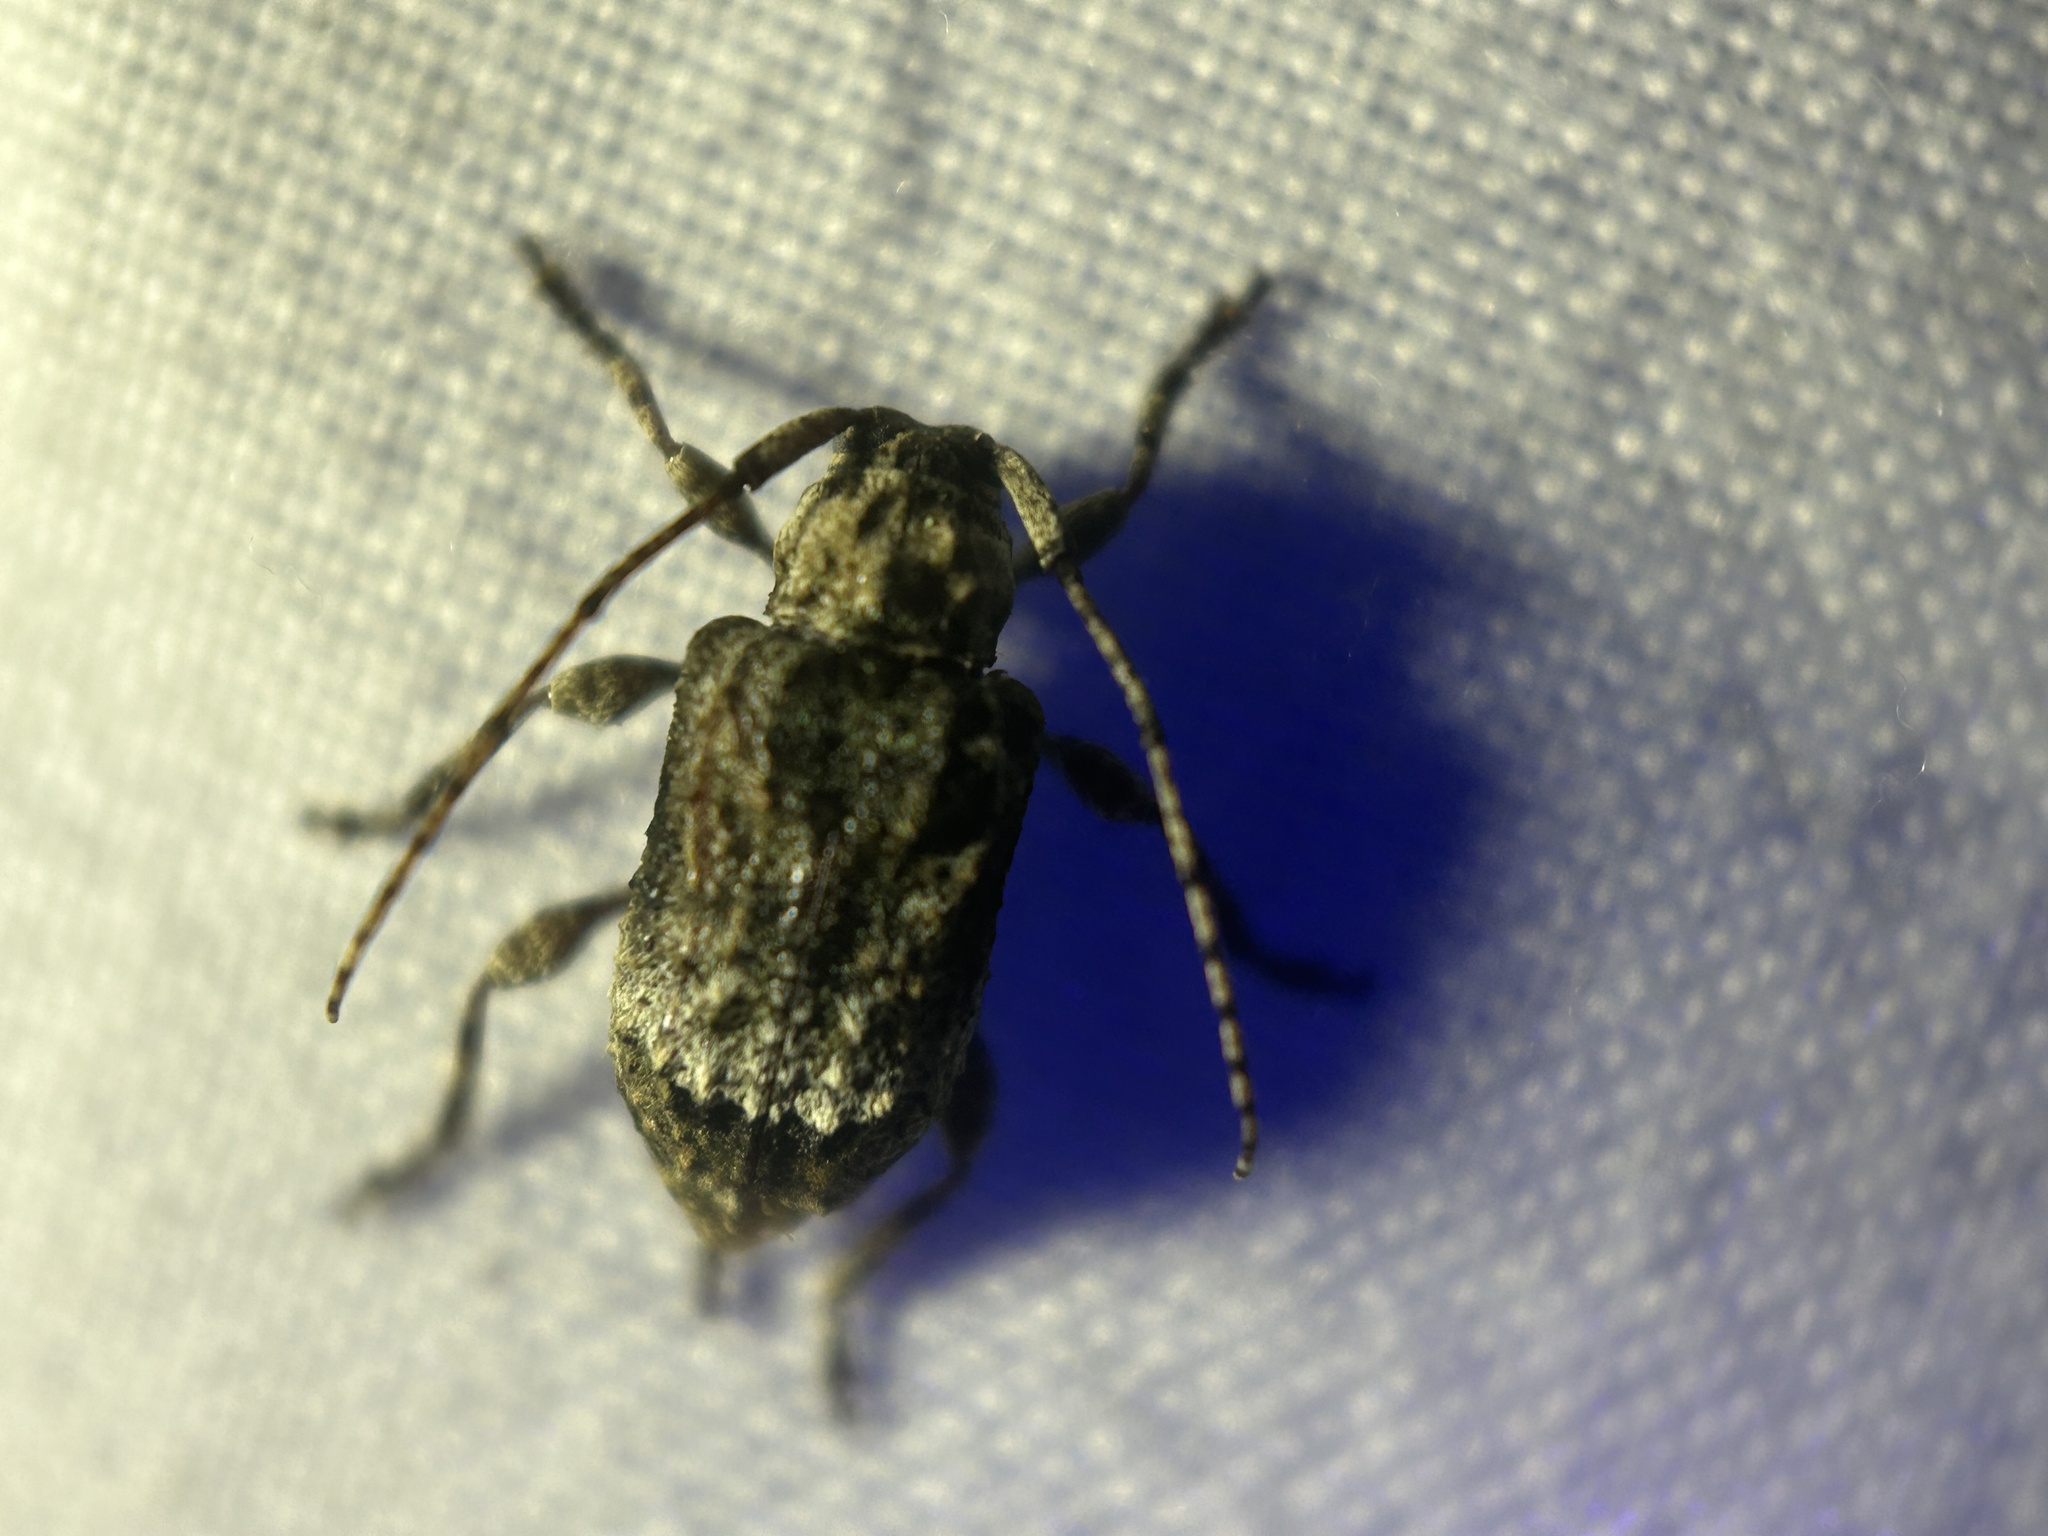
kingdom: Animalia
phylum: Arthropoda
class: Insecta
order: Coleoptera
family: Cerambycidae
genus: Leptostylus
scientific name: Leptostylus transversus
